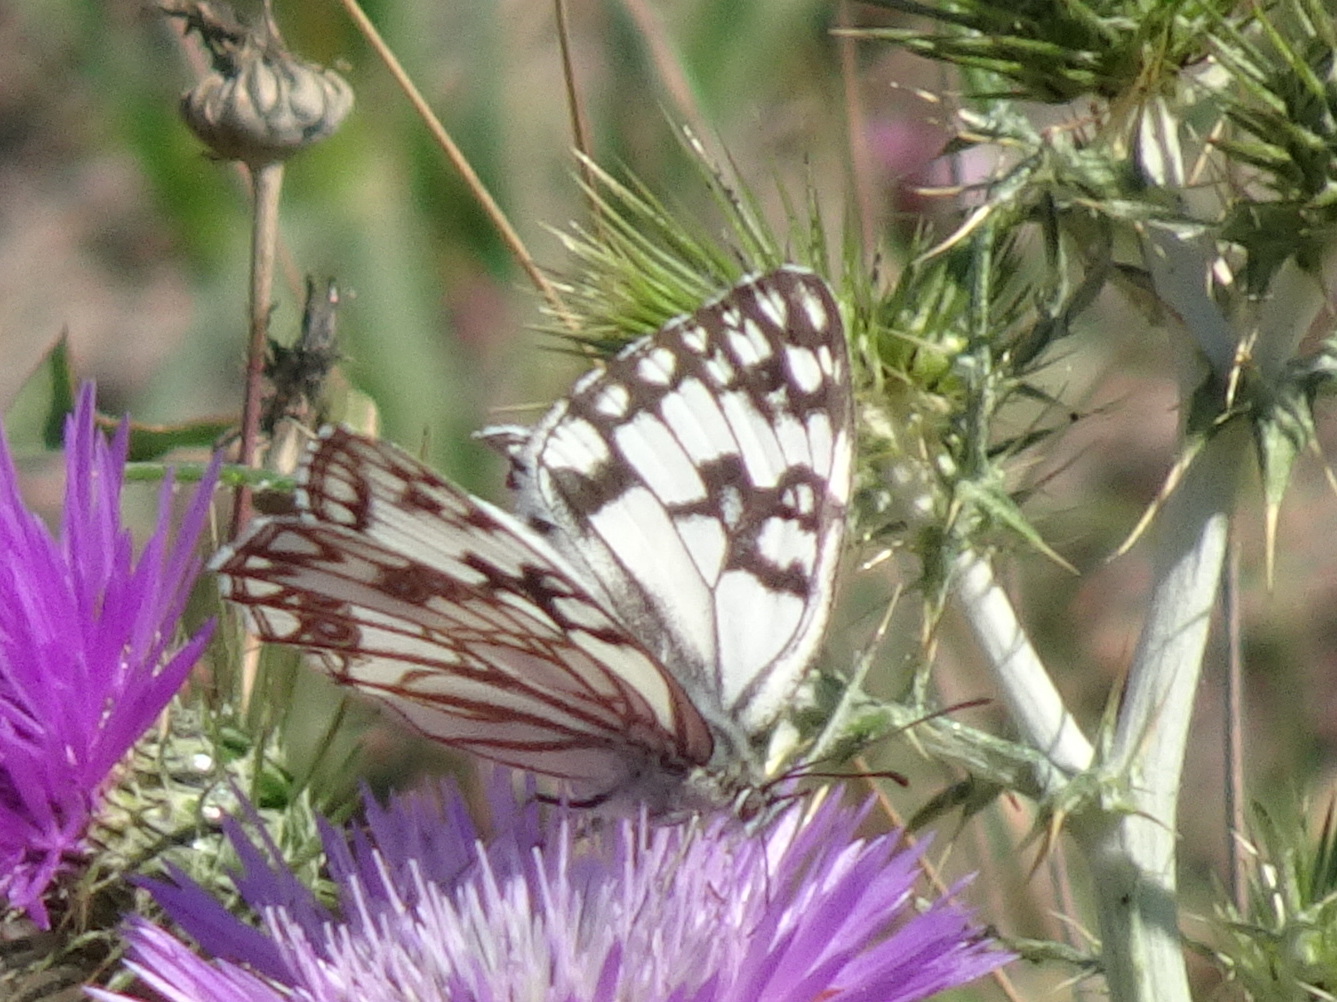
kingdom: Animalia
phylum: Arthropoda
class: Insecta
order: Lepidoptera
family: Nymphalidae
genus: Melanargia
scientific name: Melanargia occitanica
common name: Western marbled white
